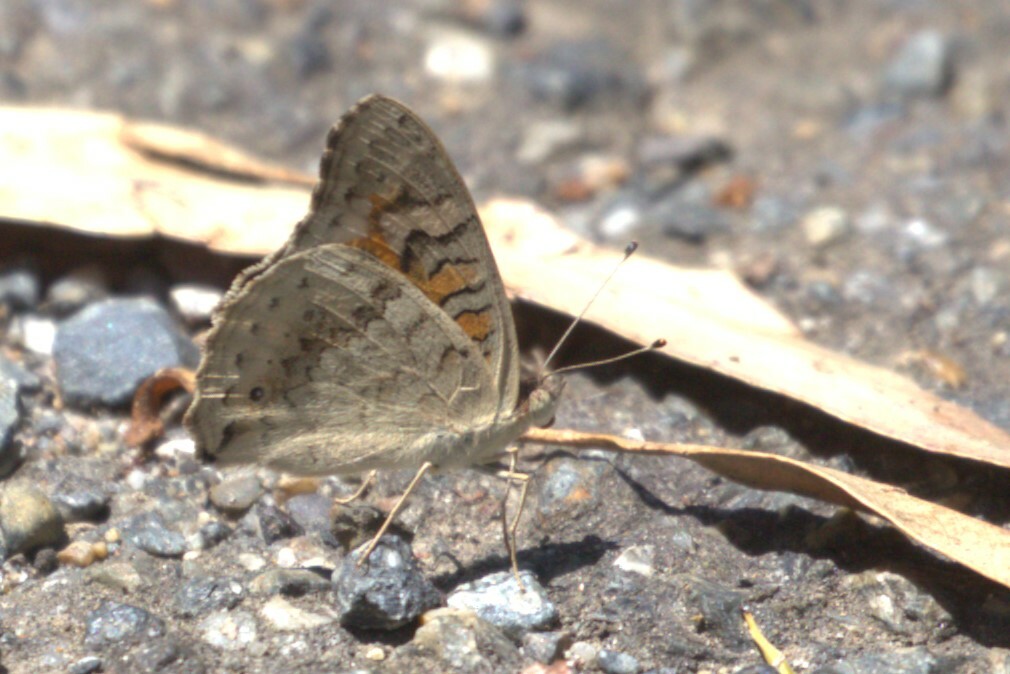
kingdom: Animalia
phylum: Arthropoda
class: Insecta
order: Lepidoptera
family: Nymphalidae
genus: Junonia
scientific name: Junonia villida
